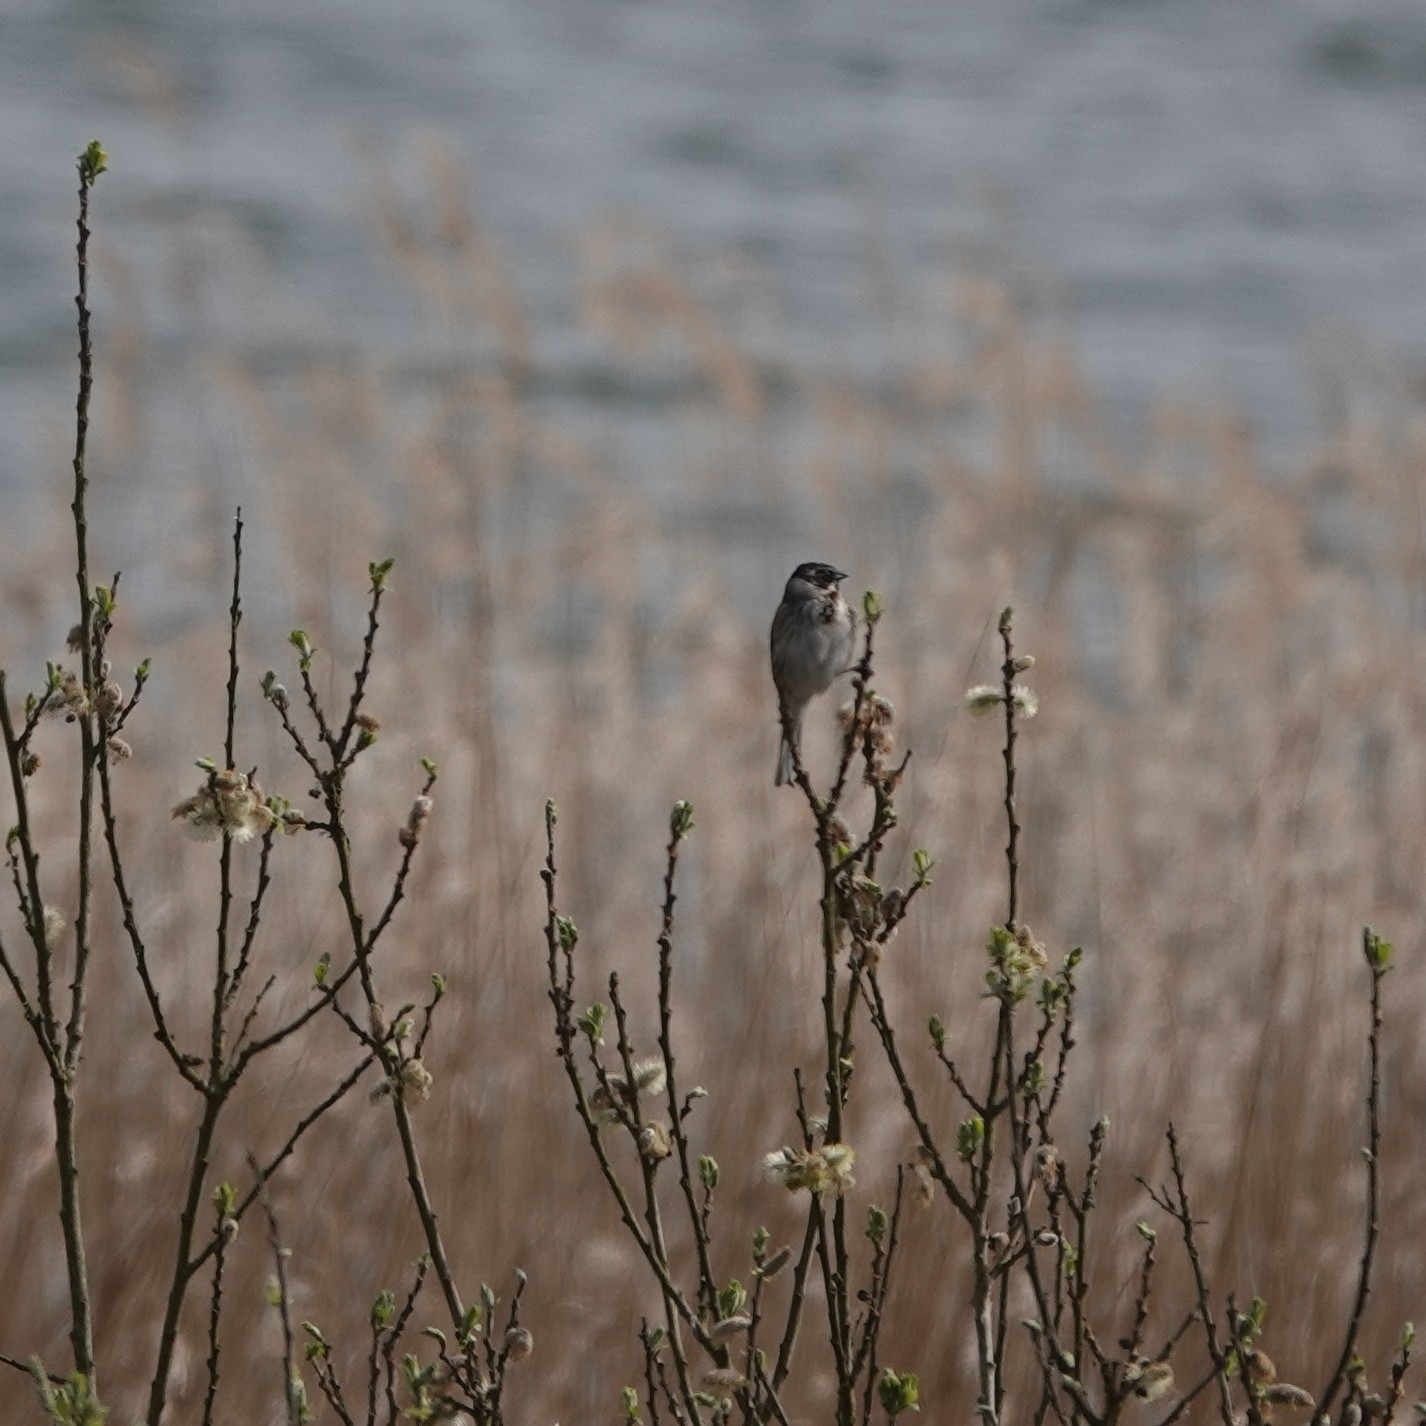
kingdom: Animalia
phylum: Chordata
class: Aves
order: Passeriformes
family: Emberizidae
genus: Emberiza
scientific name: Emberiza schoeniclus
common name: Reed bunting
